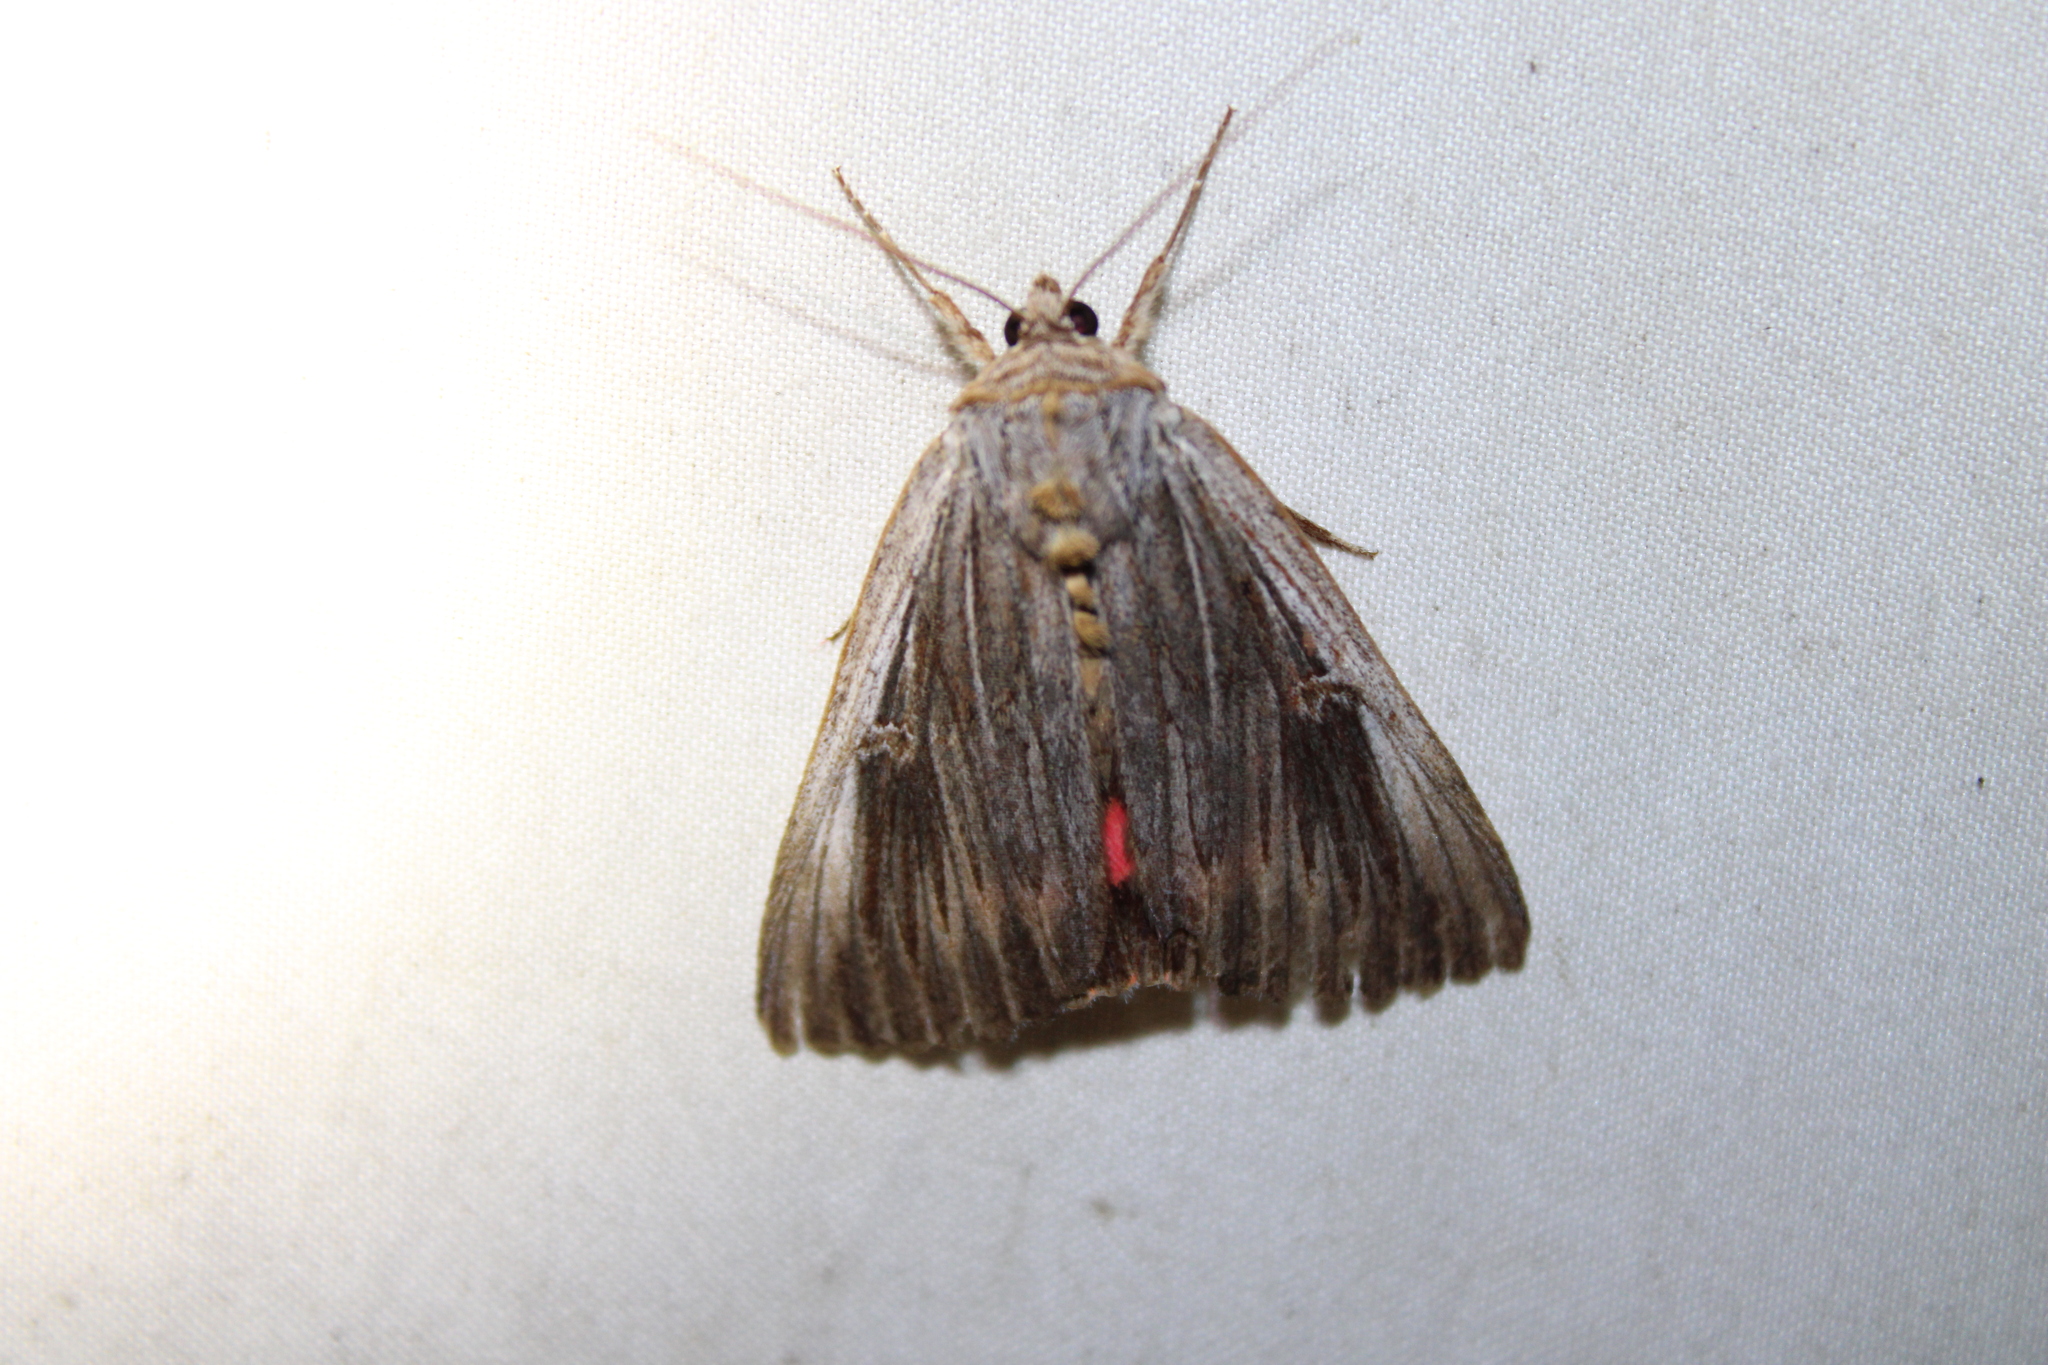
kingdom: Animalia
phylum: Arthropoda
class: Insecta
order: Lepidoptera
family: Erebidae
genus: Catocala
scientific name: Catocala herodias
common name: Pine barrens underwing
